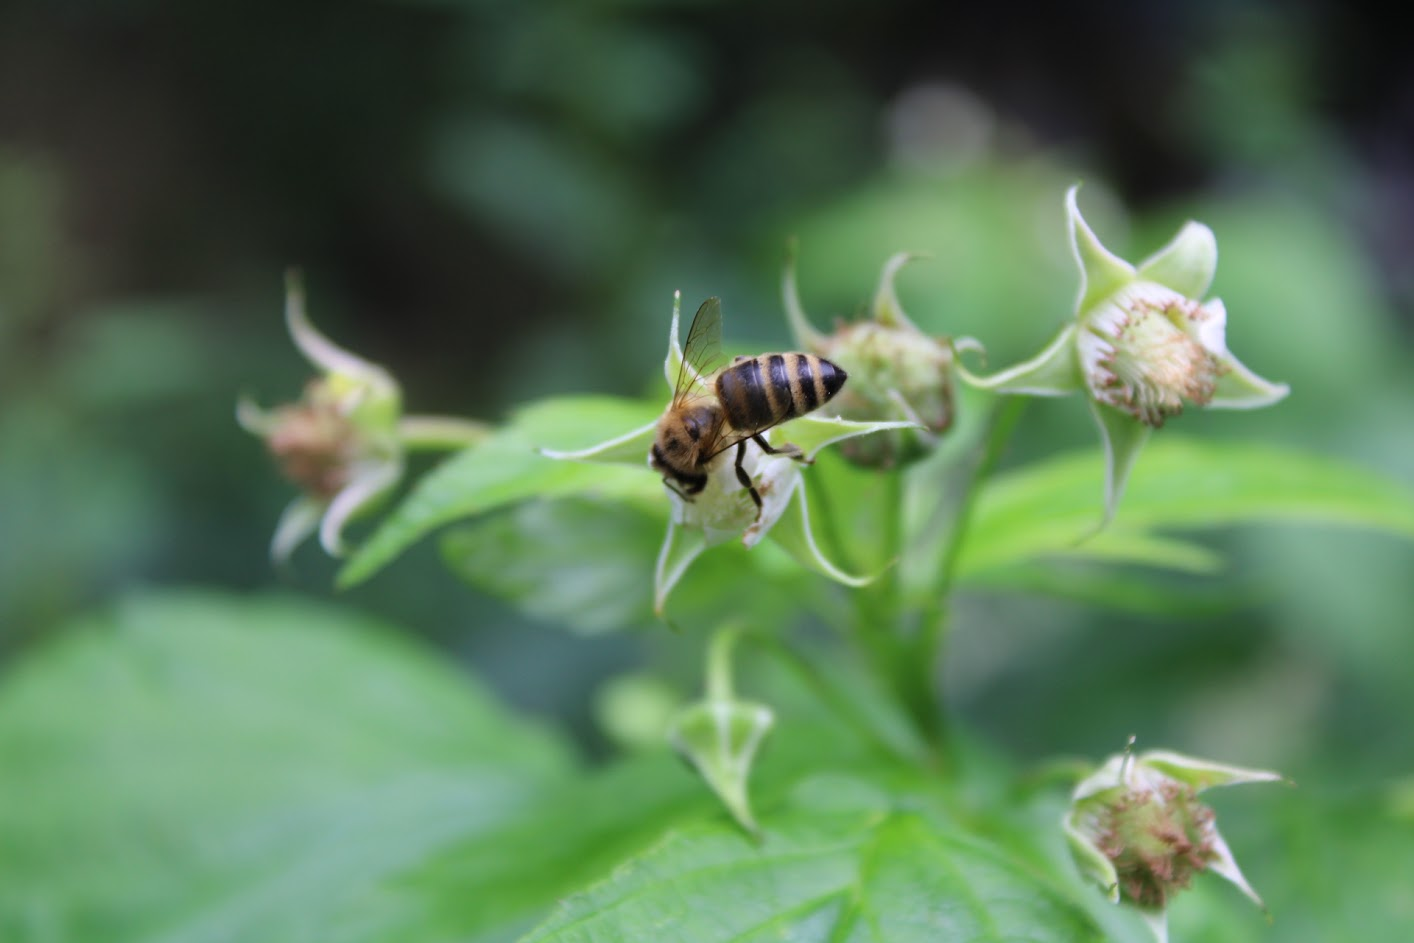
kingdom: Animalia
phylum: Arthropoda
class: Insecta
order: Hymenoptera
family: Apidae
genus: Apis
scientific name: Apis mellifera
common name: Honey bee
